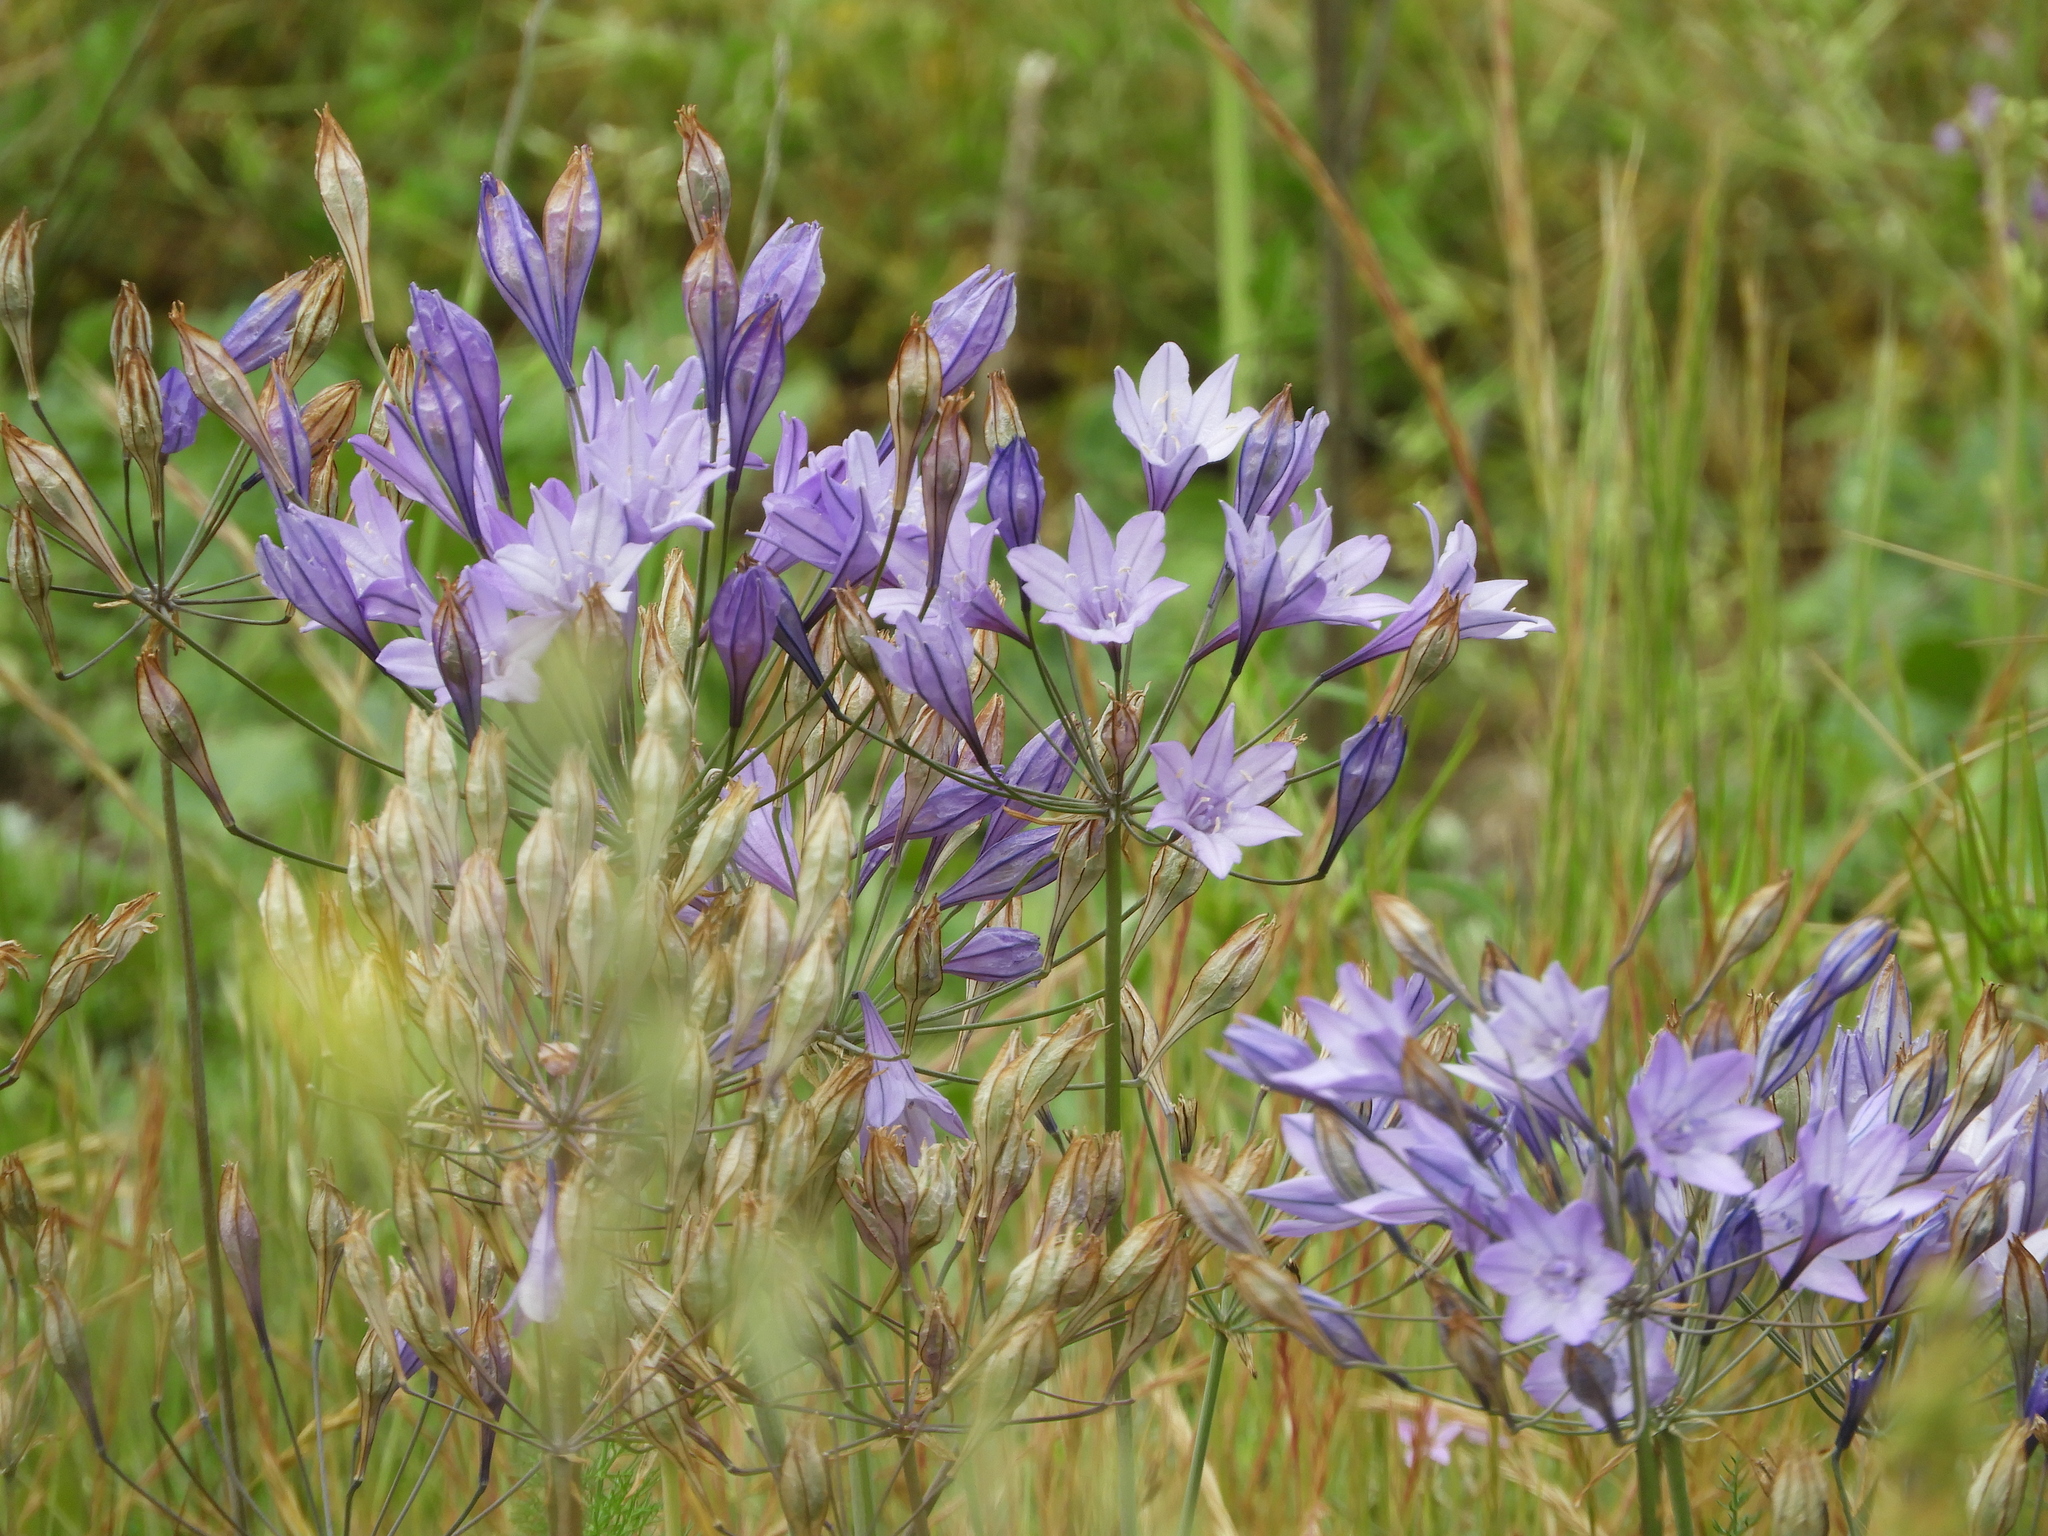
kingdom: Plantae
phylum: Tracheophyta
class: Liliopsida
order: Asparagales
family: Asparagaceae
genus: Triteleia
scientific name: Triteleia laxa
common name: Triplet-lily
